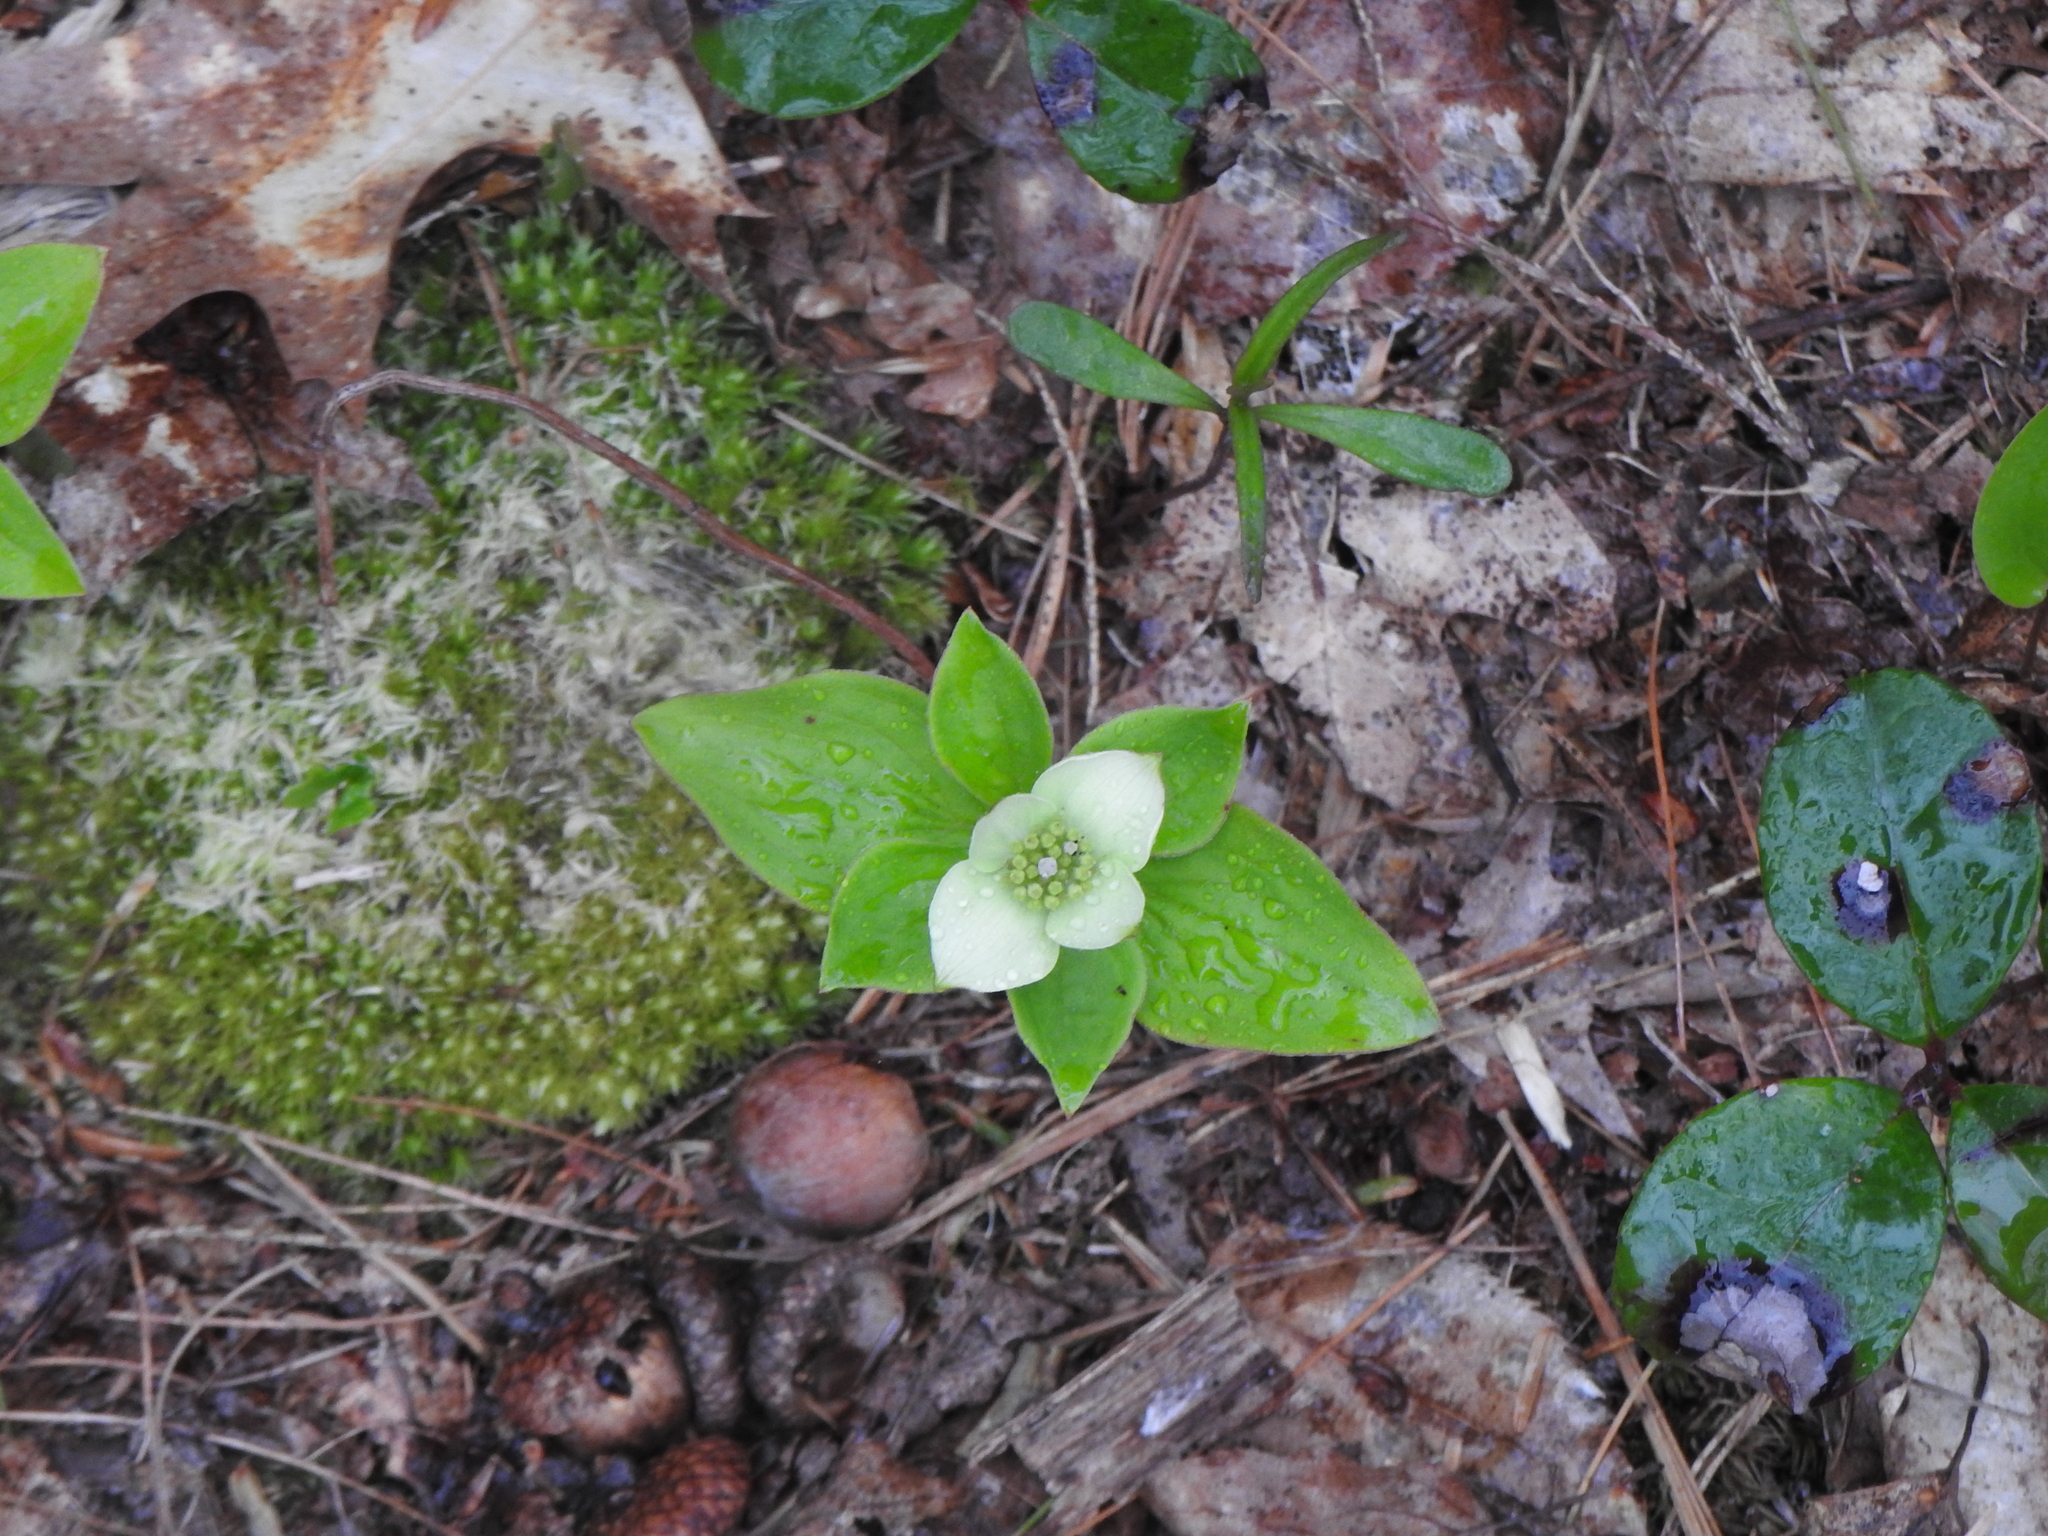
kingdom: Plantae
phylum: Tracheophyta
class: Magnoliopsida
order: Cornales
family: Cornaceae
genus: Cornus
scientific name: Cornus canadensis
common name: Creeping dogwood
